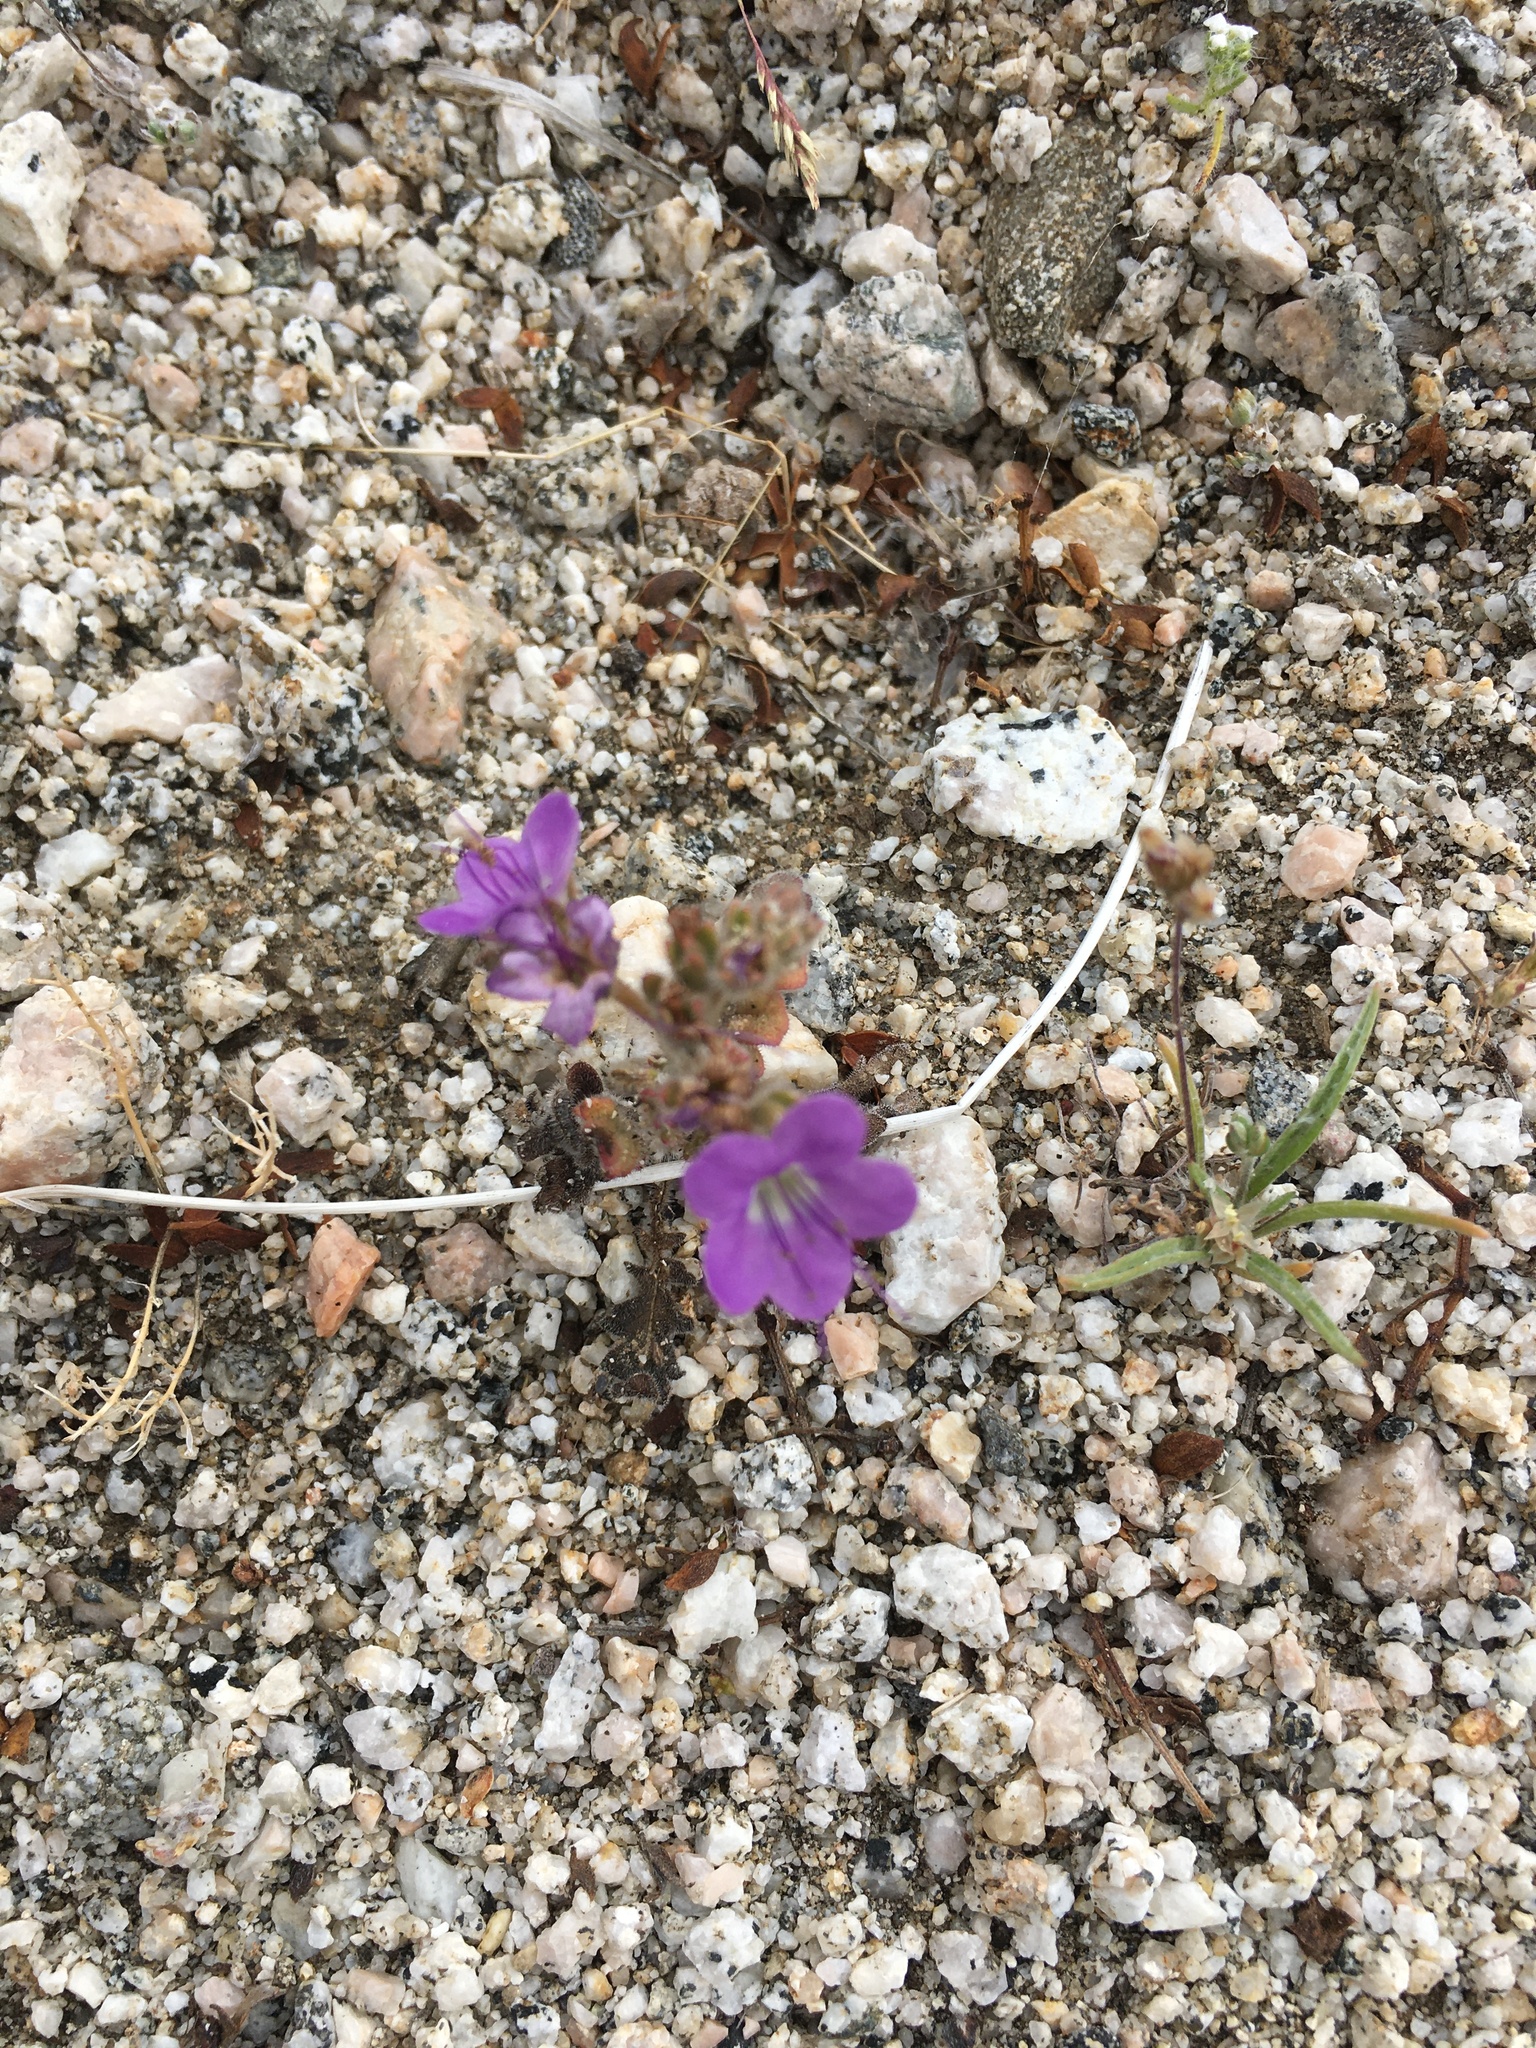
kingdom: Plantae
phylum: Tracheophyta
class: Magnoliopsida
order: Boraginales
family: Hydrophyllaceae
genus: Phacelia
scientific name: Phacelia crenulata
